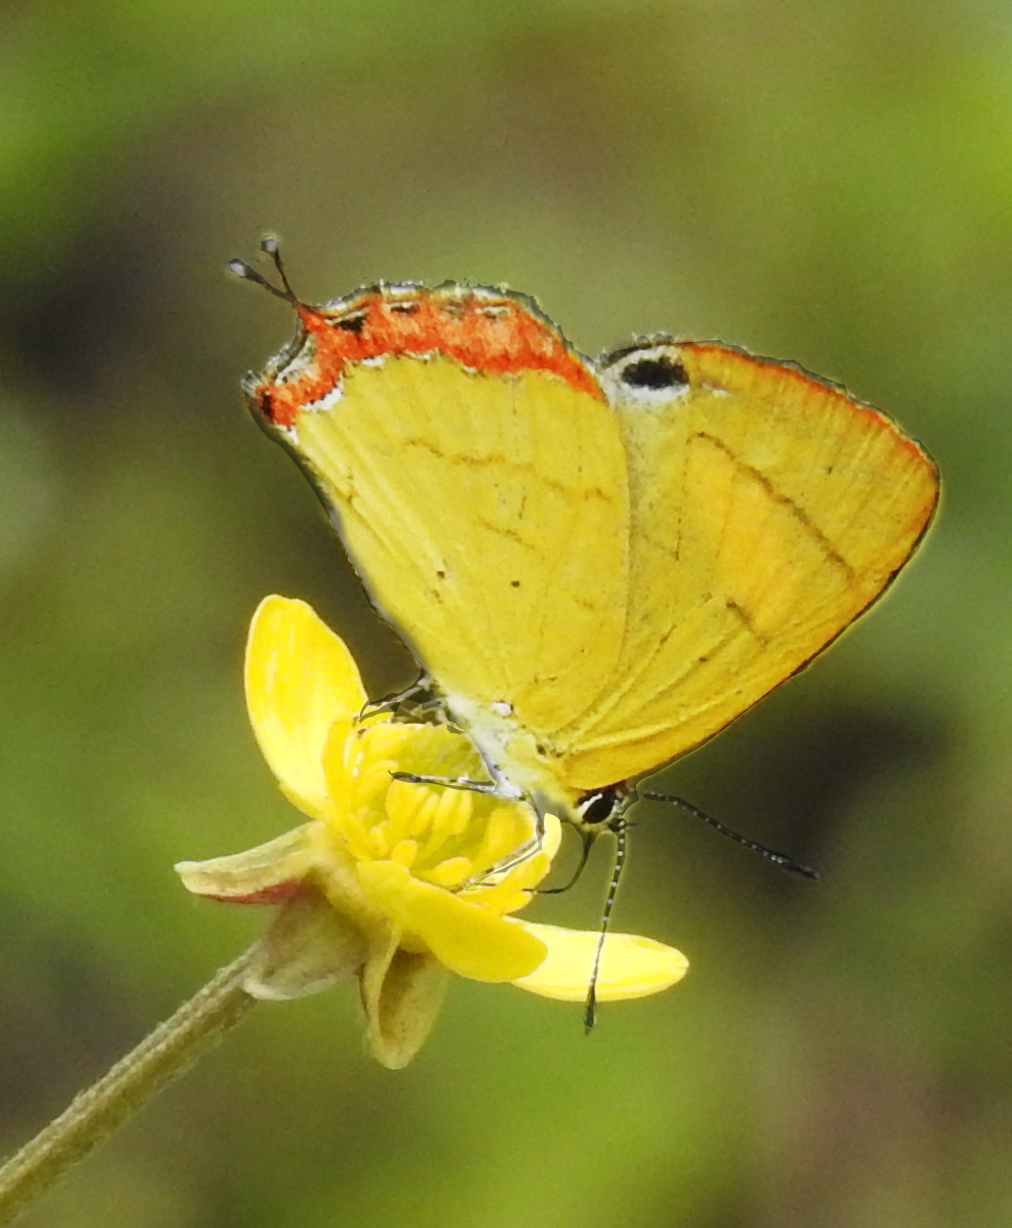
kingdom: Animalia
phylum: Arthropoda
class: Insecta
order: Lepidoptera
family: Lycaenidae
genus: Heliophorus
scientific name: Heliophorus brahma
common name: Golden sapphire
